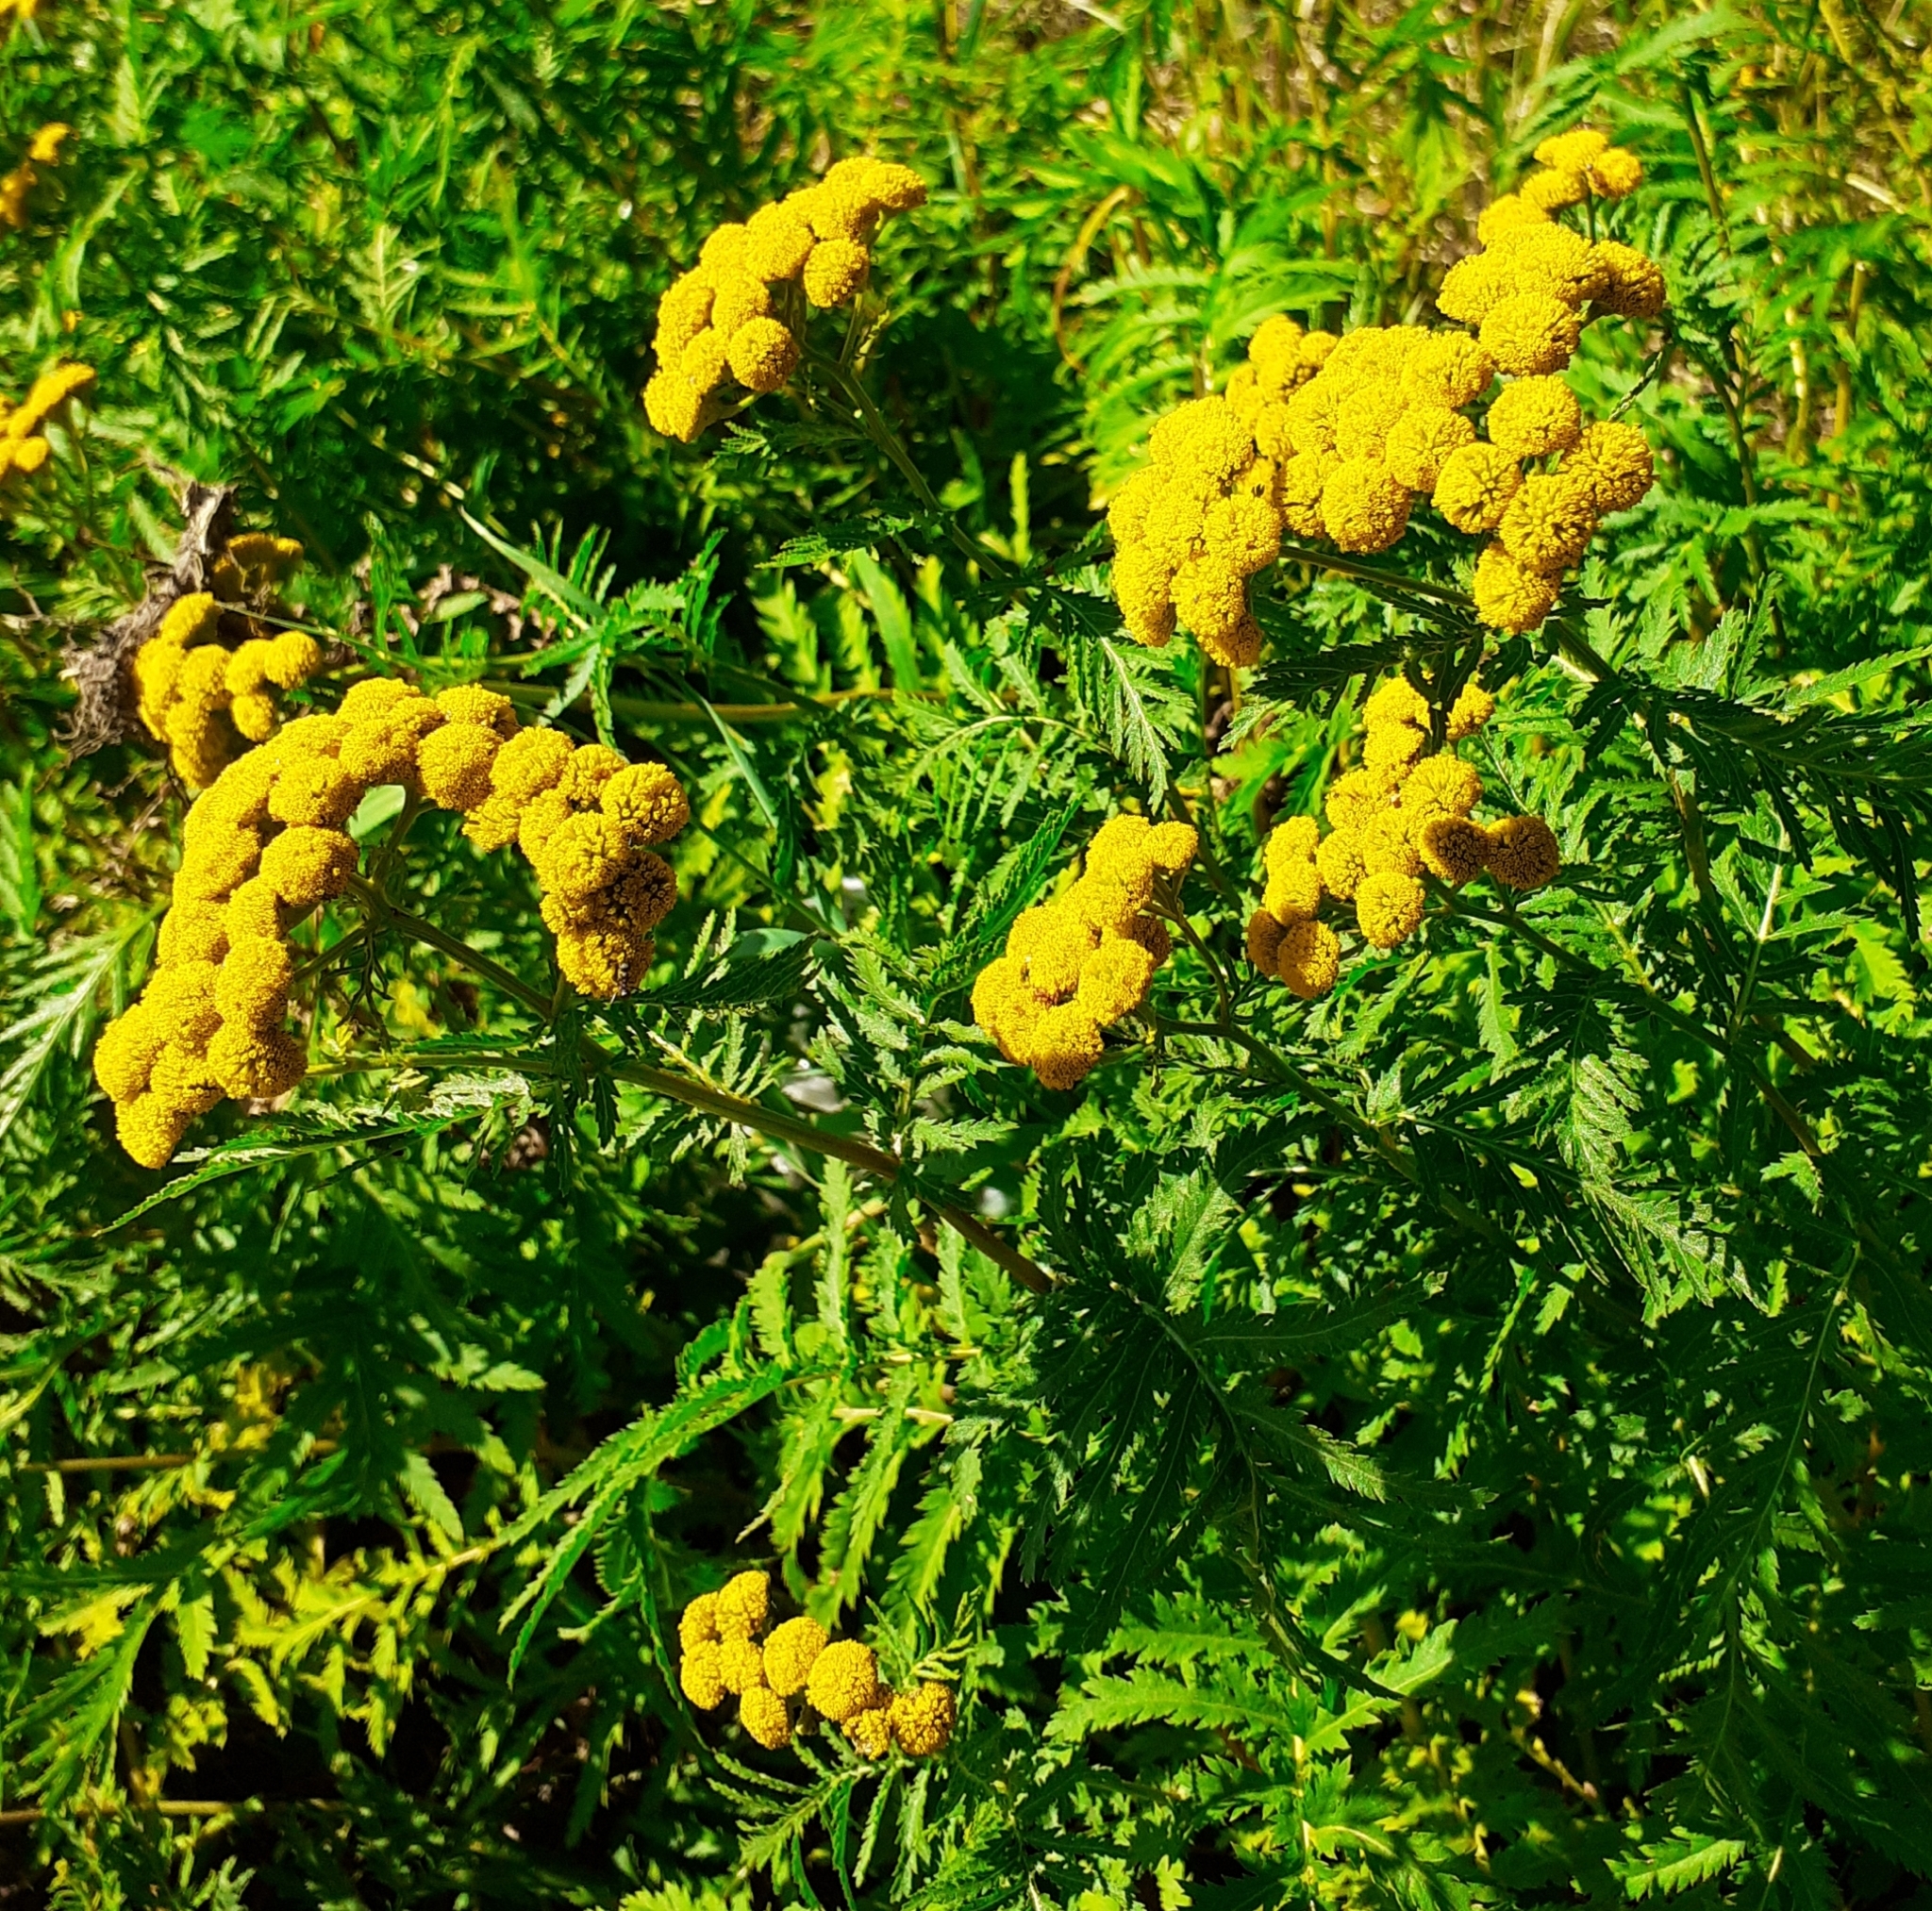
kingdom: Plantae
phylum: Tracheophyta
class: Magnoliopsida
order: Asterales
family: Asteraceae
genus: Tanacetum
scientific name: Tanacetum vulgare
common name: Common tansy
